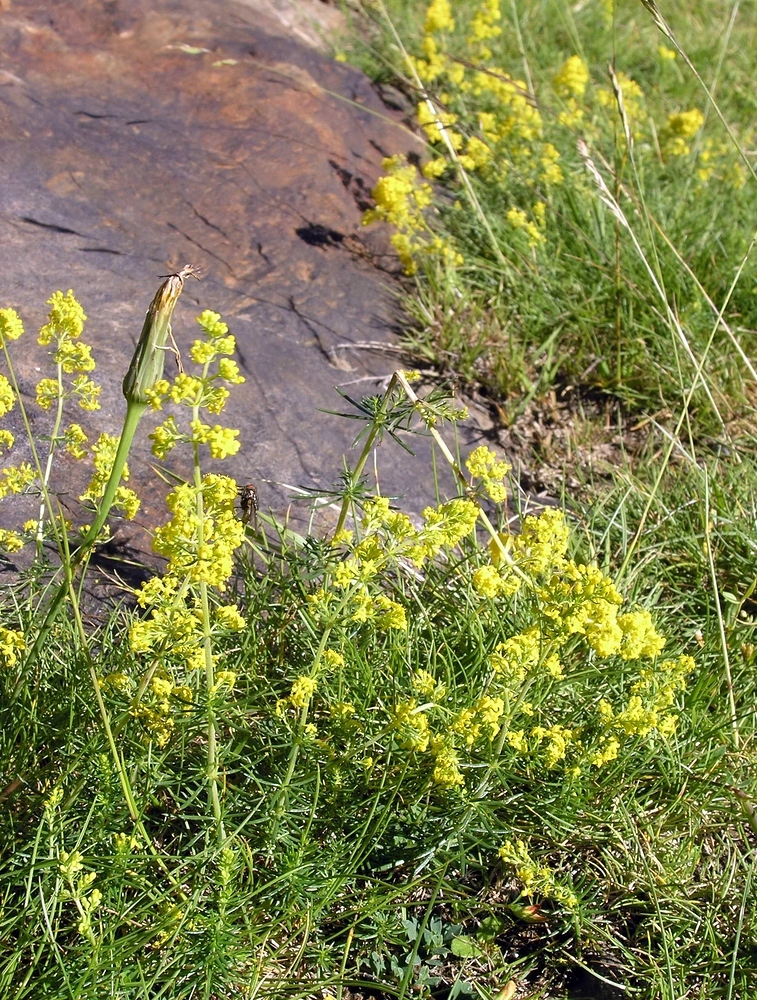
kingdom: Plantae
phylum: Tracheophyta
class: Magnoliopsida
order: Gentianales
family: Rubiaceae
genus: Galium
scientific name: Galium verum
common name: Lady's bedstraw
